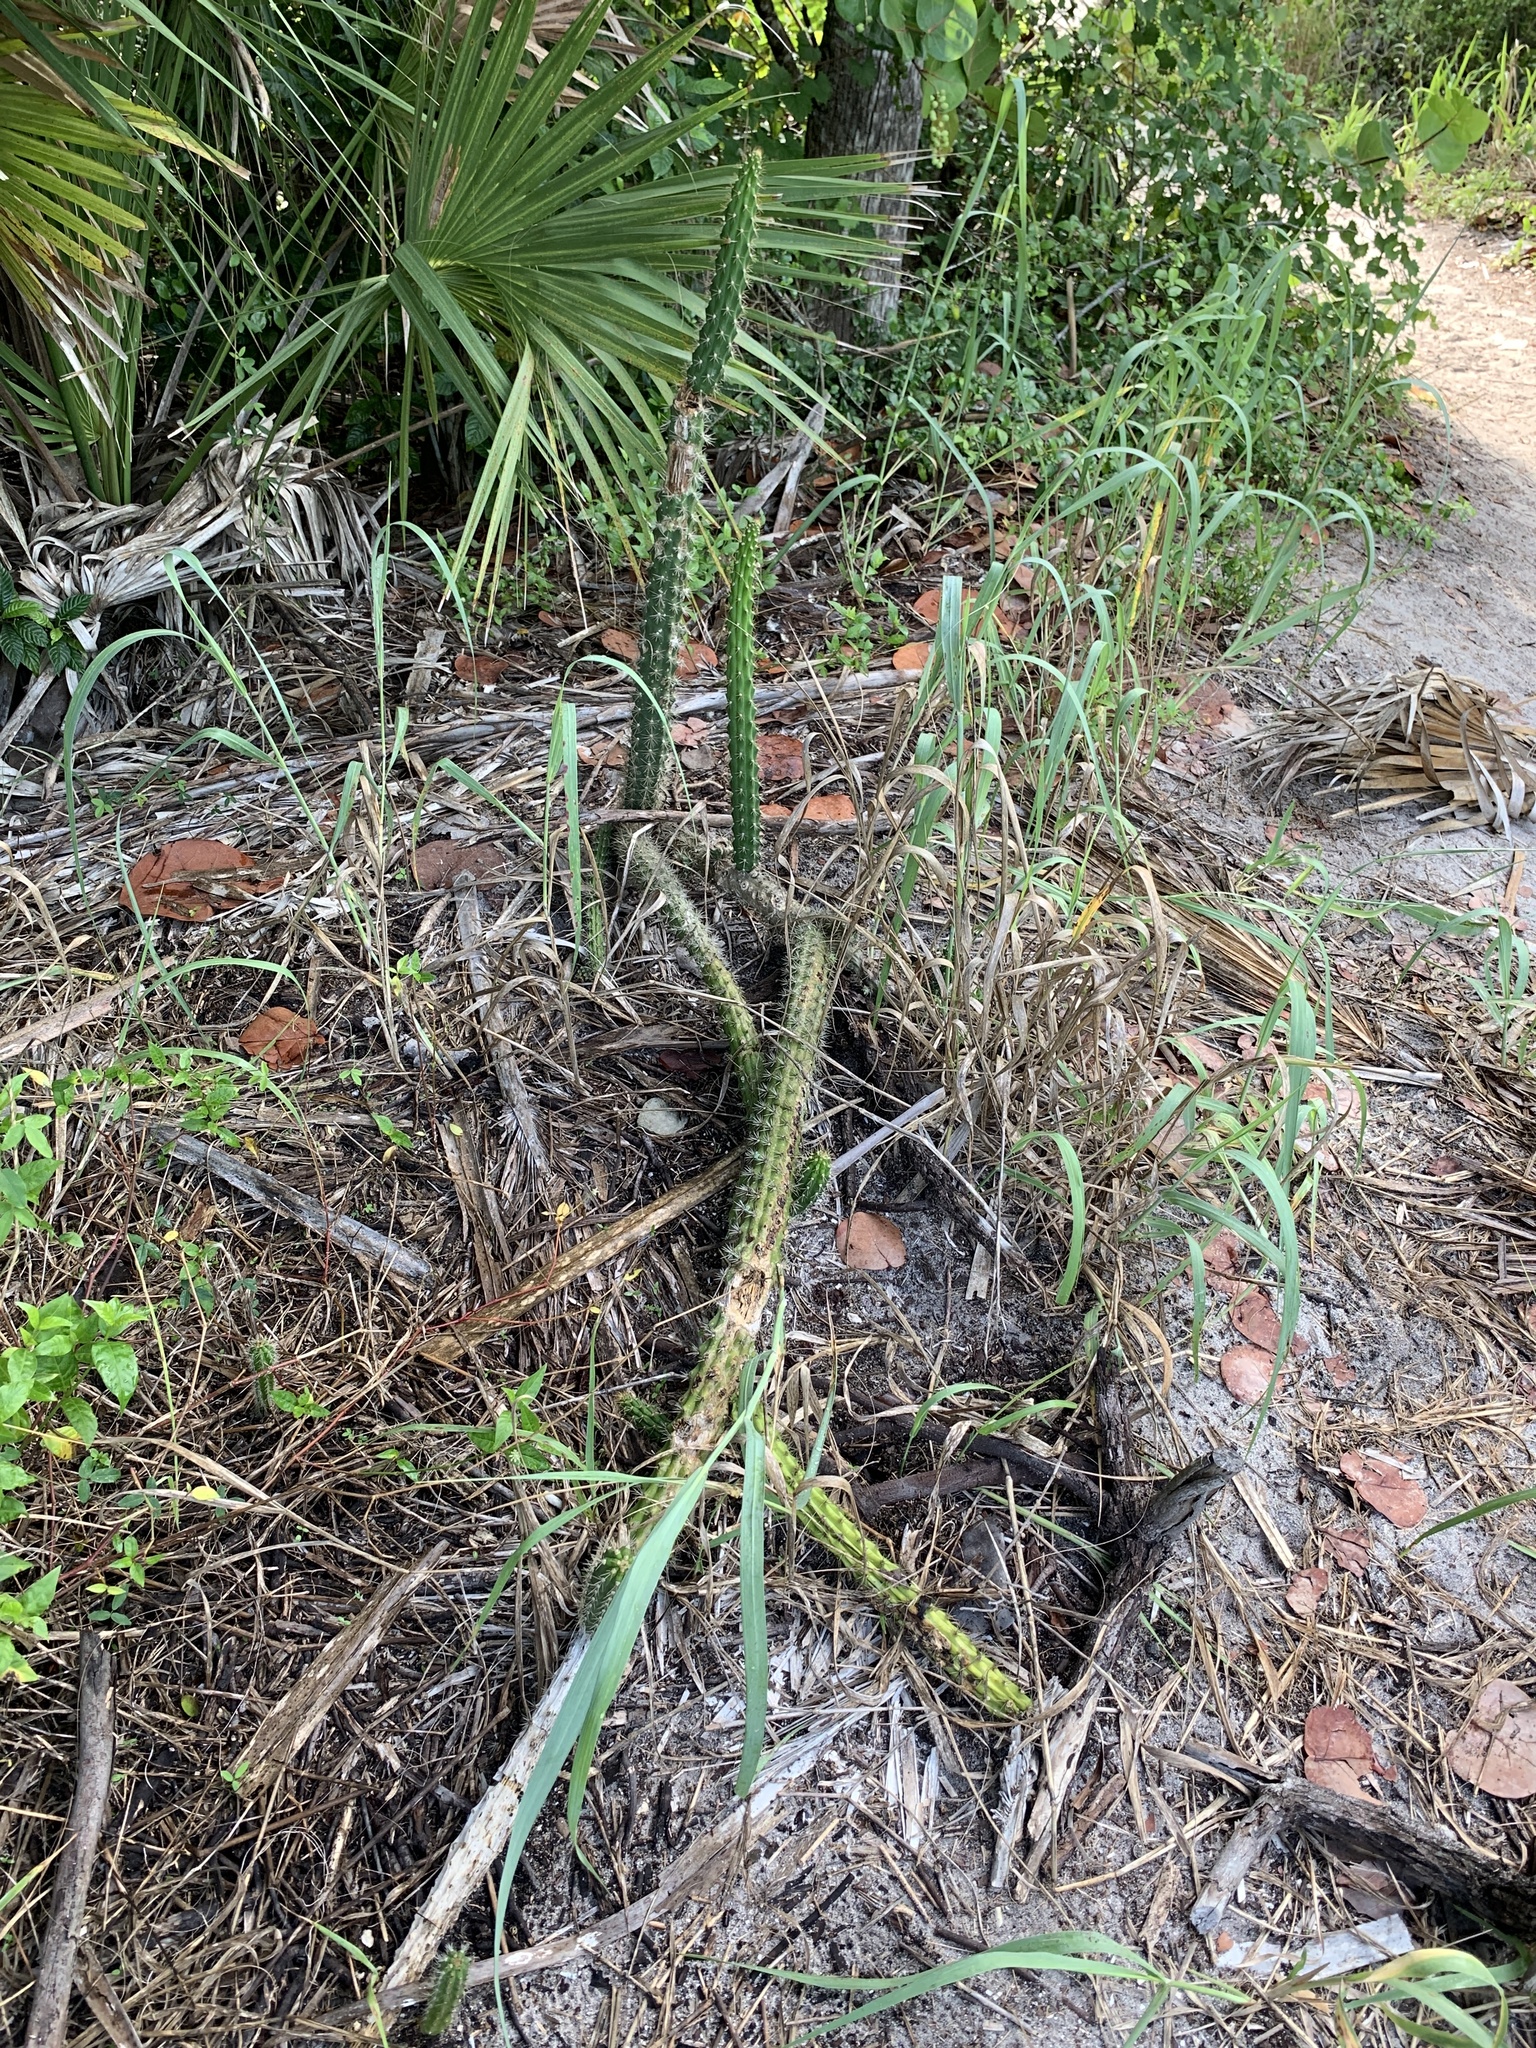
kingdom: Plantae
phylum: Tracheophyta
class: Magnoliopsida
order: Caryophyllales
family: Cactaceae
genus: Harrisia
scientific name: Harrisia aboriginum
